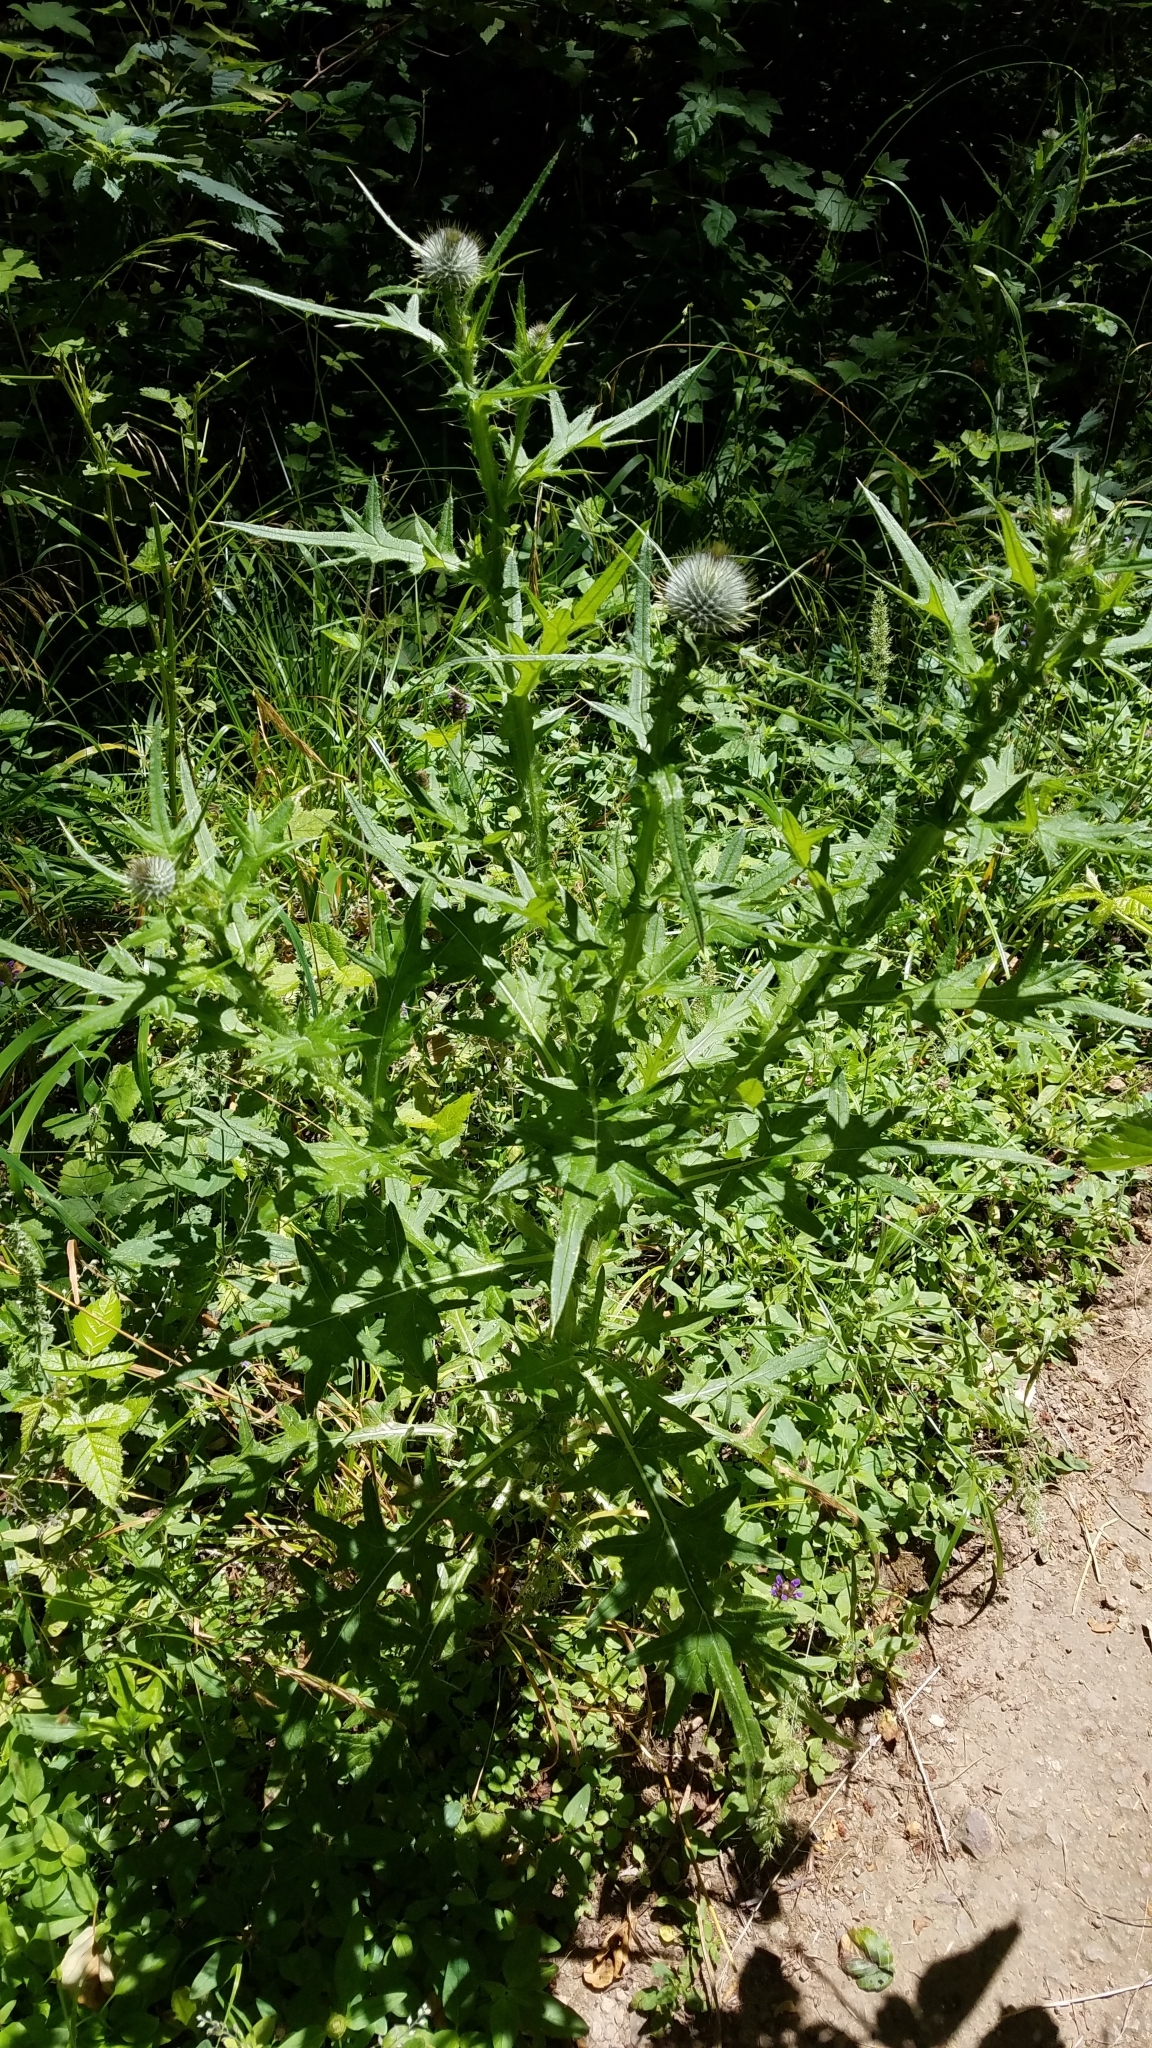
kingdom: Plantae
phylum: Tracheophyta
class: Magnoliopsida
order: Asterales
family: Asteraceae
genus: Cirsium
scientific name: Cirsium vulgare
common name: Bull thistle
